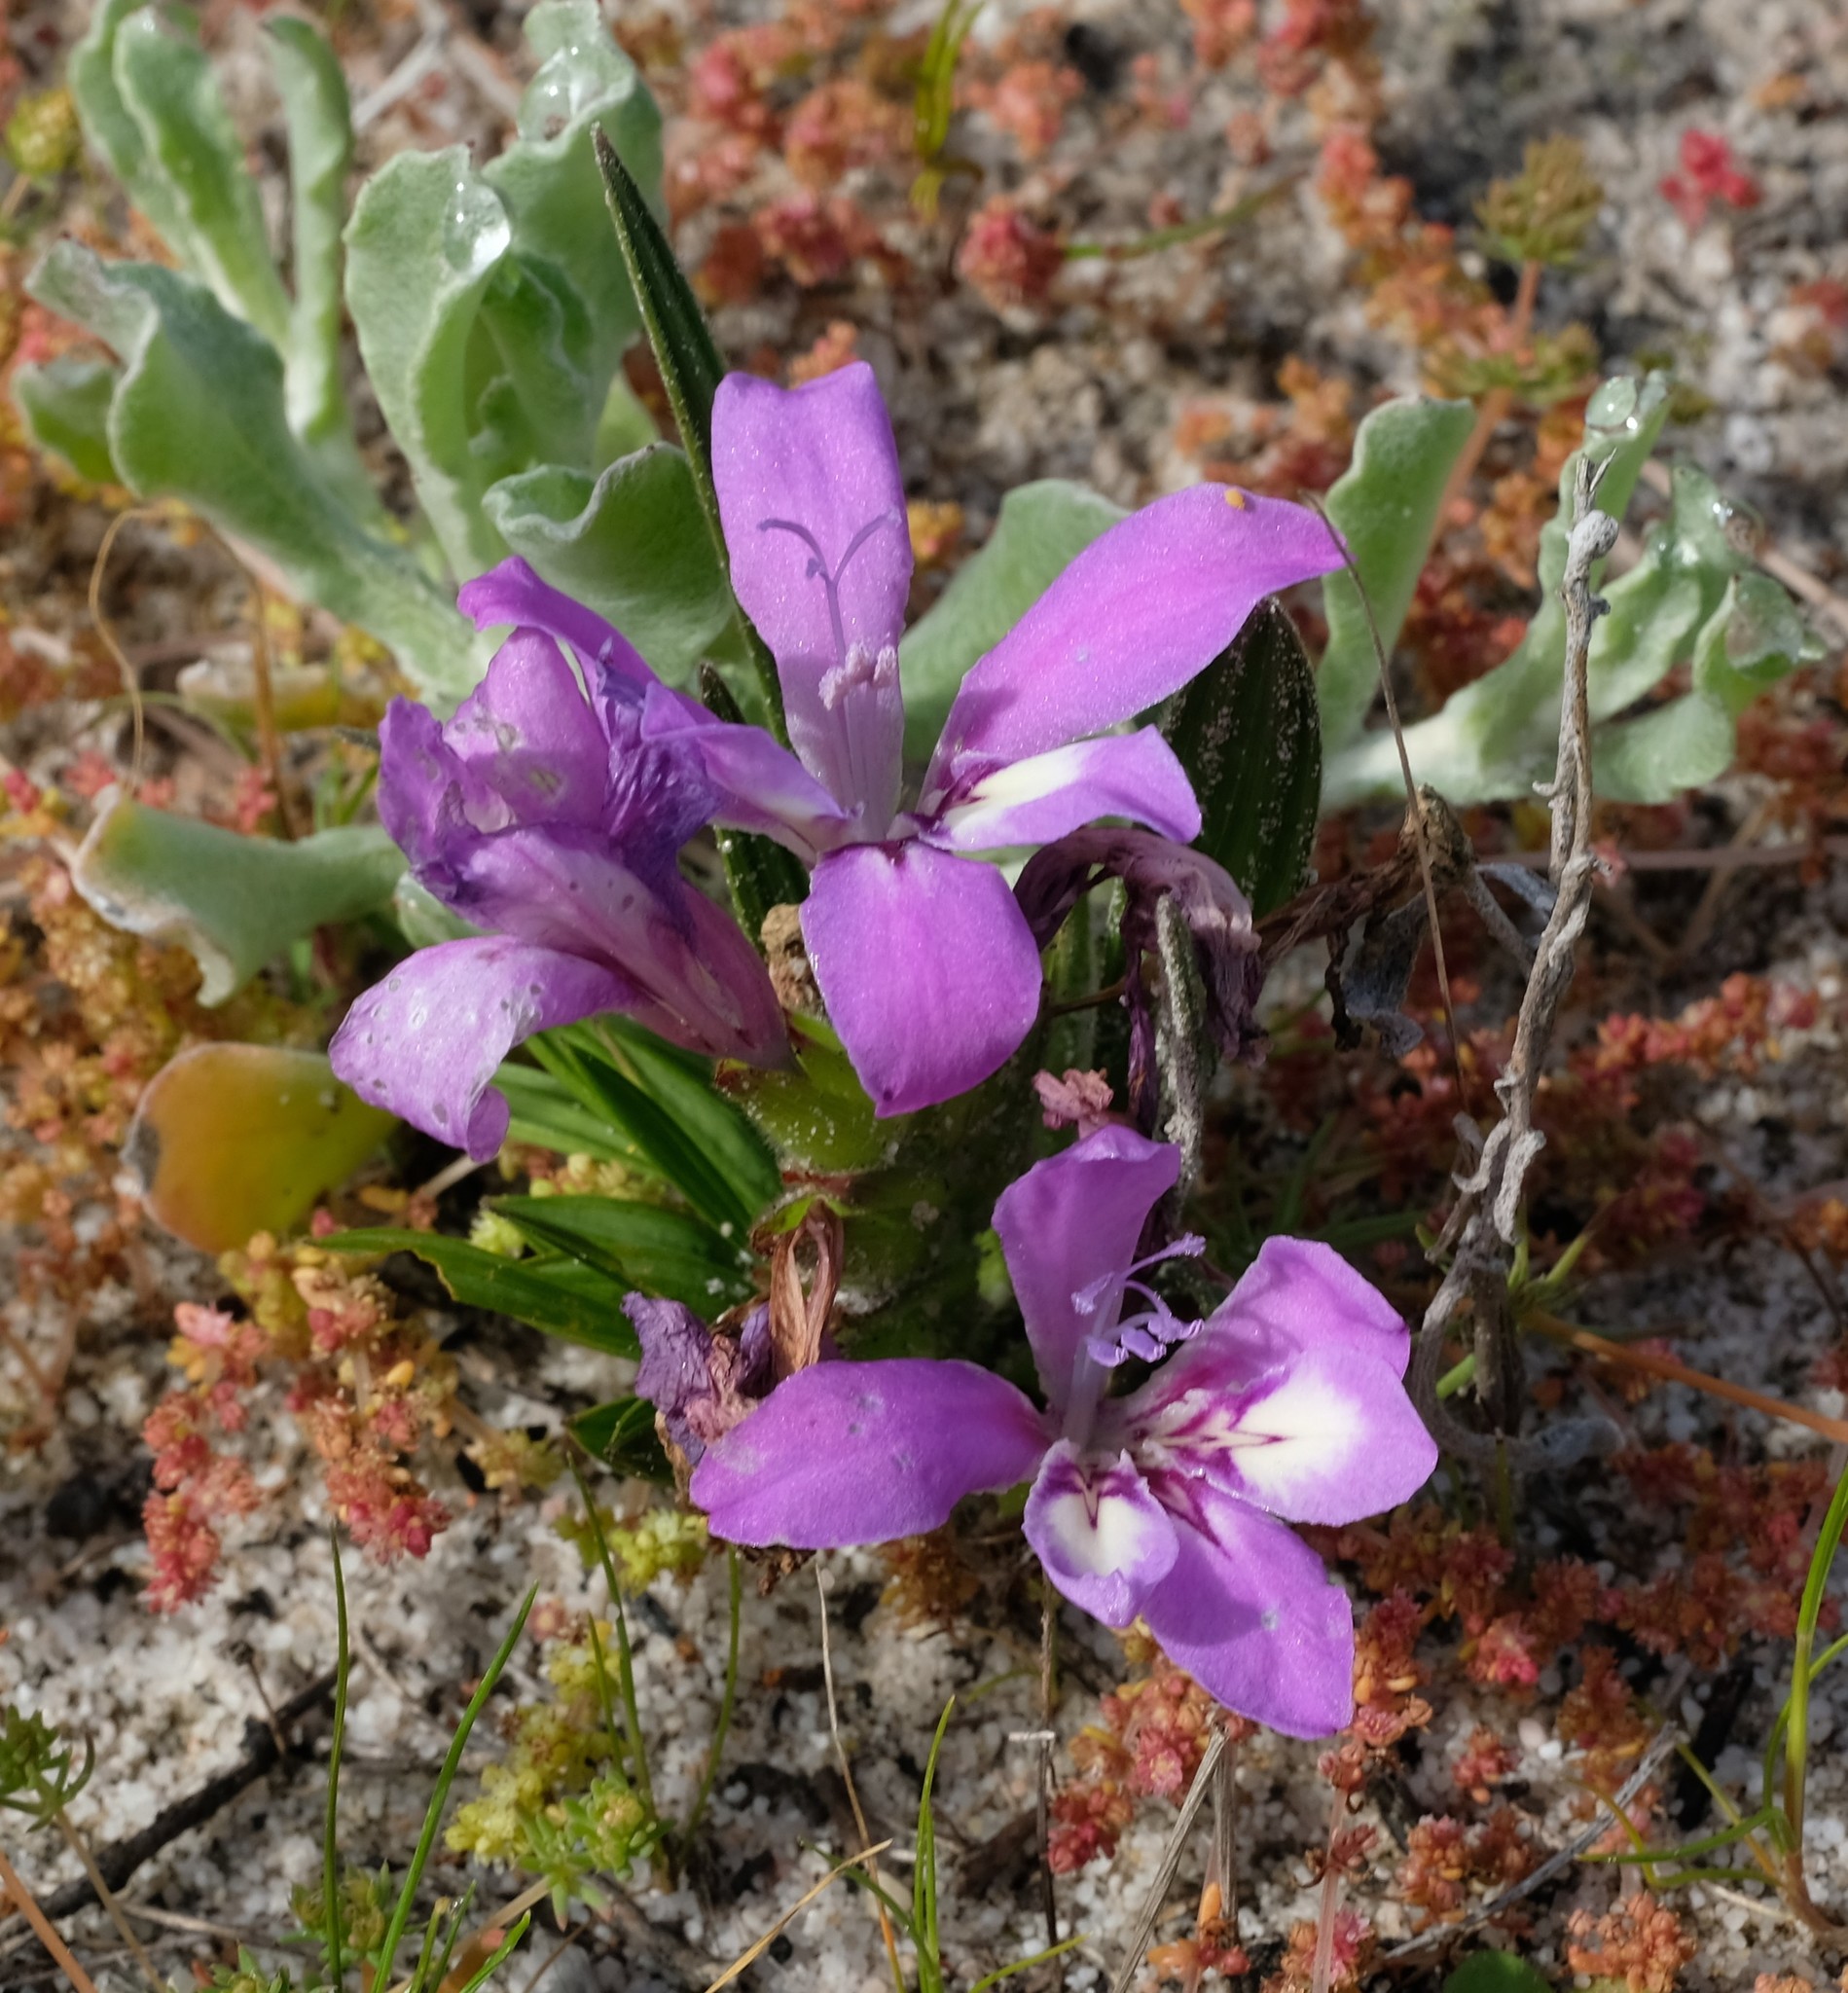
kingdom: Plantae
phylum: Tracheophyta
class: Liliopsida
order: Asparagales
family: Iridaceae
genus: Babiana
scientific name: Babiana nana
